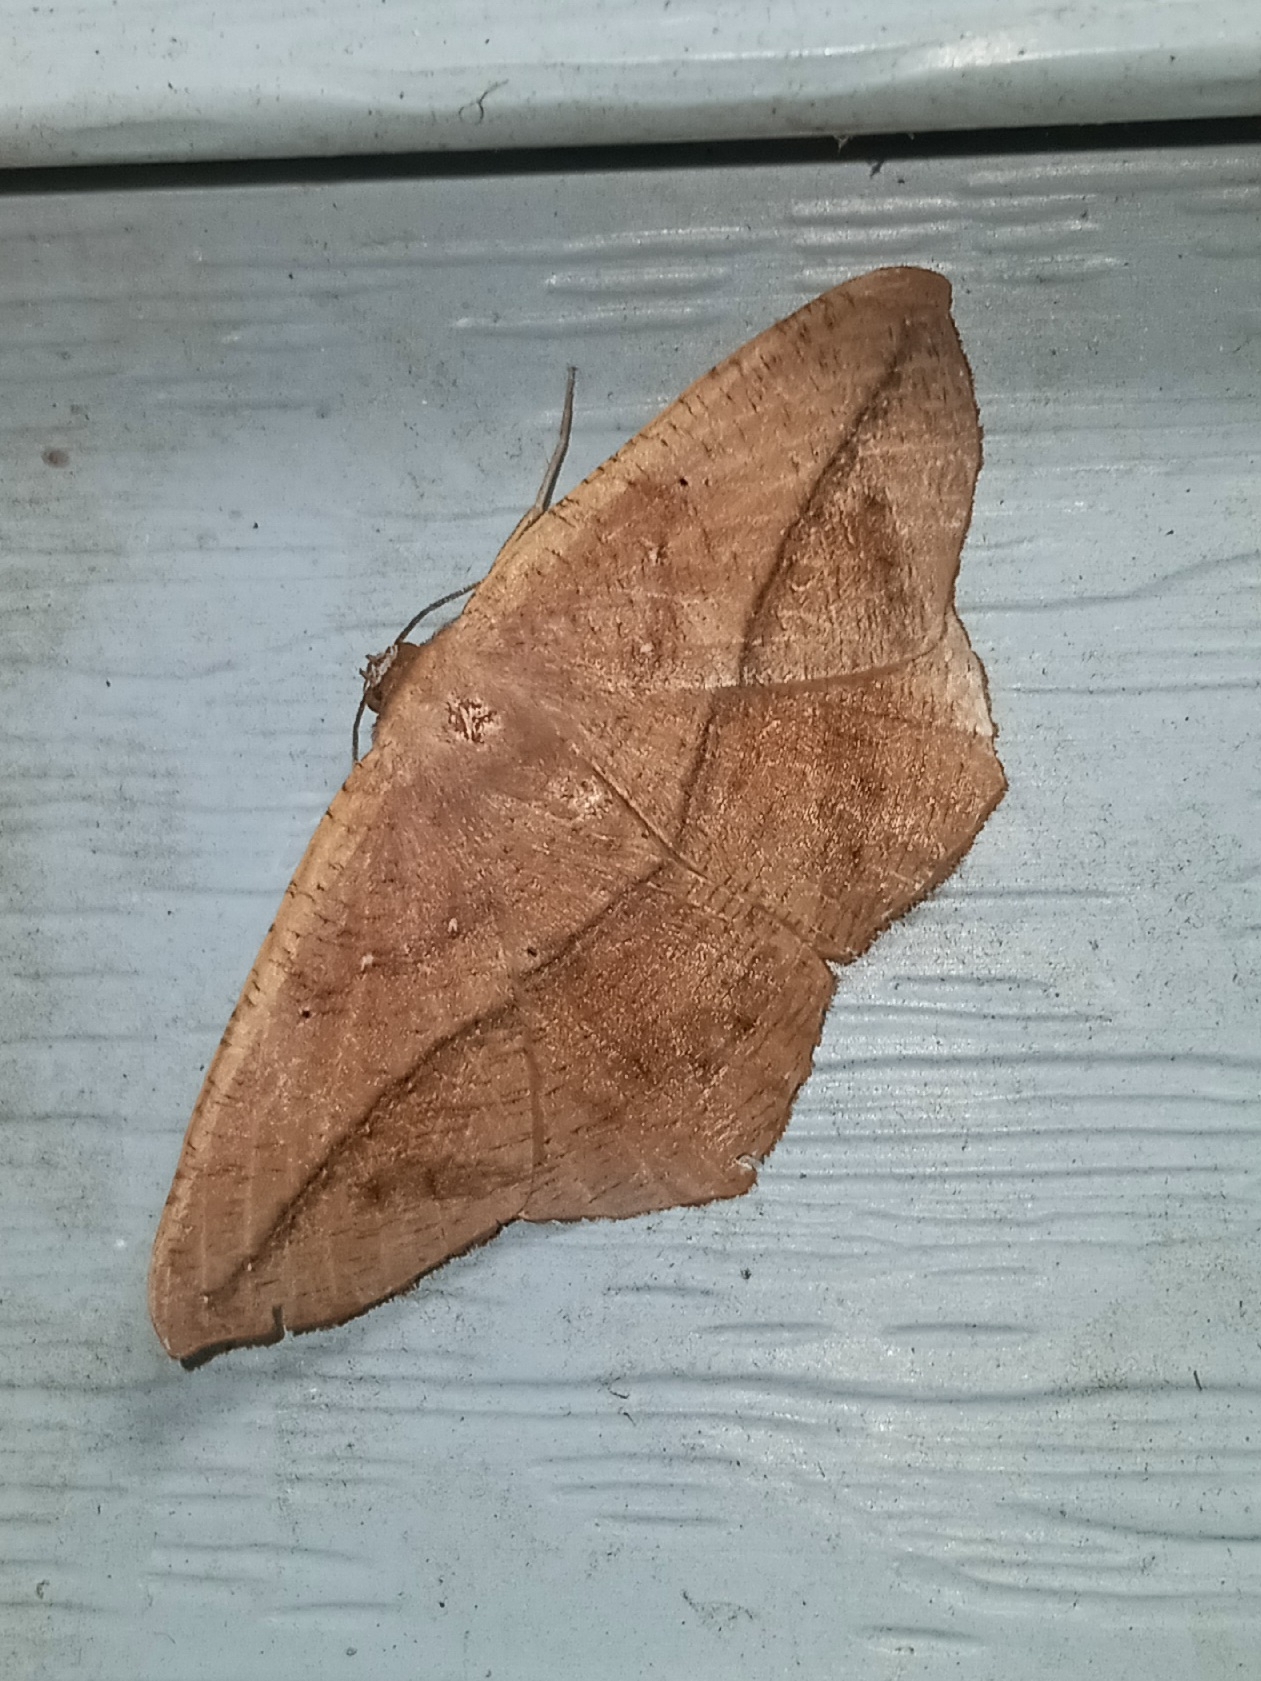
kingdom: Animalia
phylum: Arthropoda
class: Insecta
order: Lepidoptera
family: Geometridae
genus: Prochoerodes
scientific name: Prochoerodes lineola
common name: Large maple spanworm
